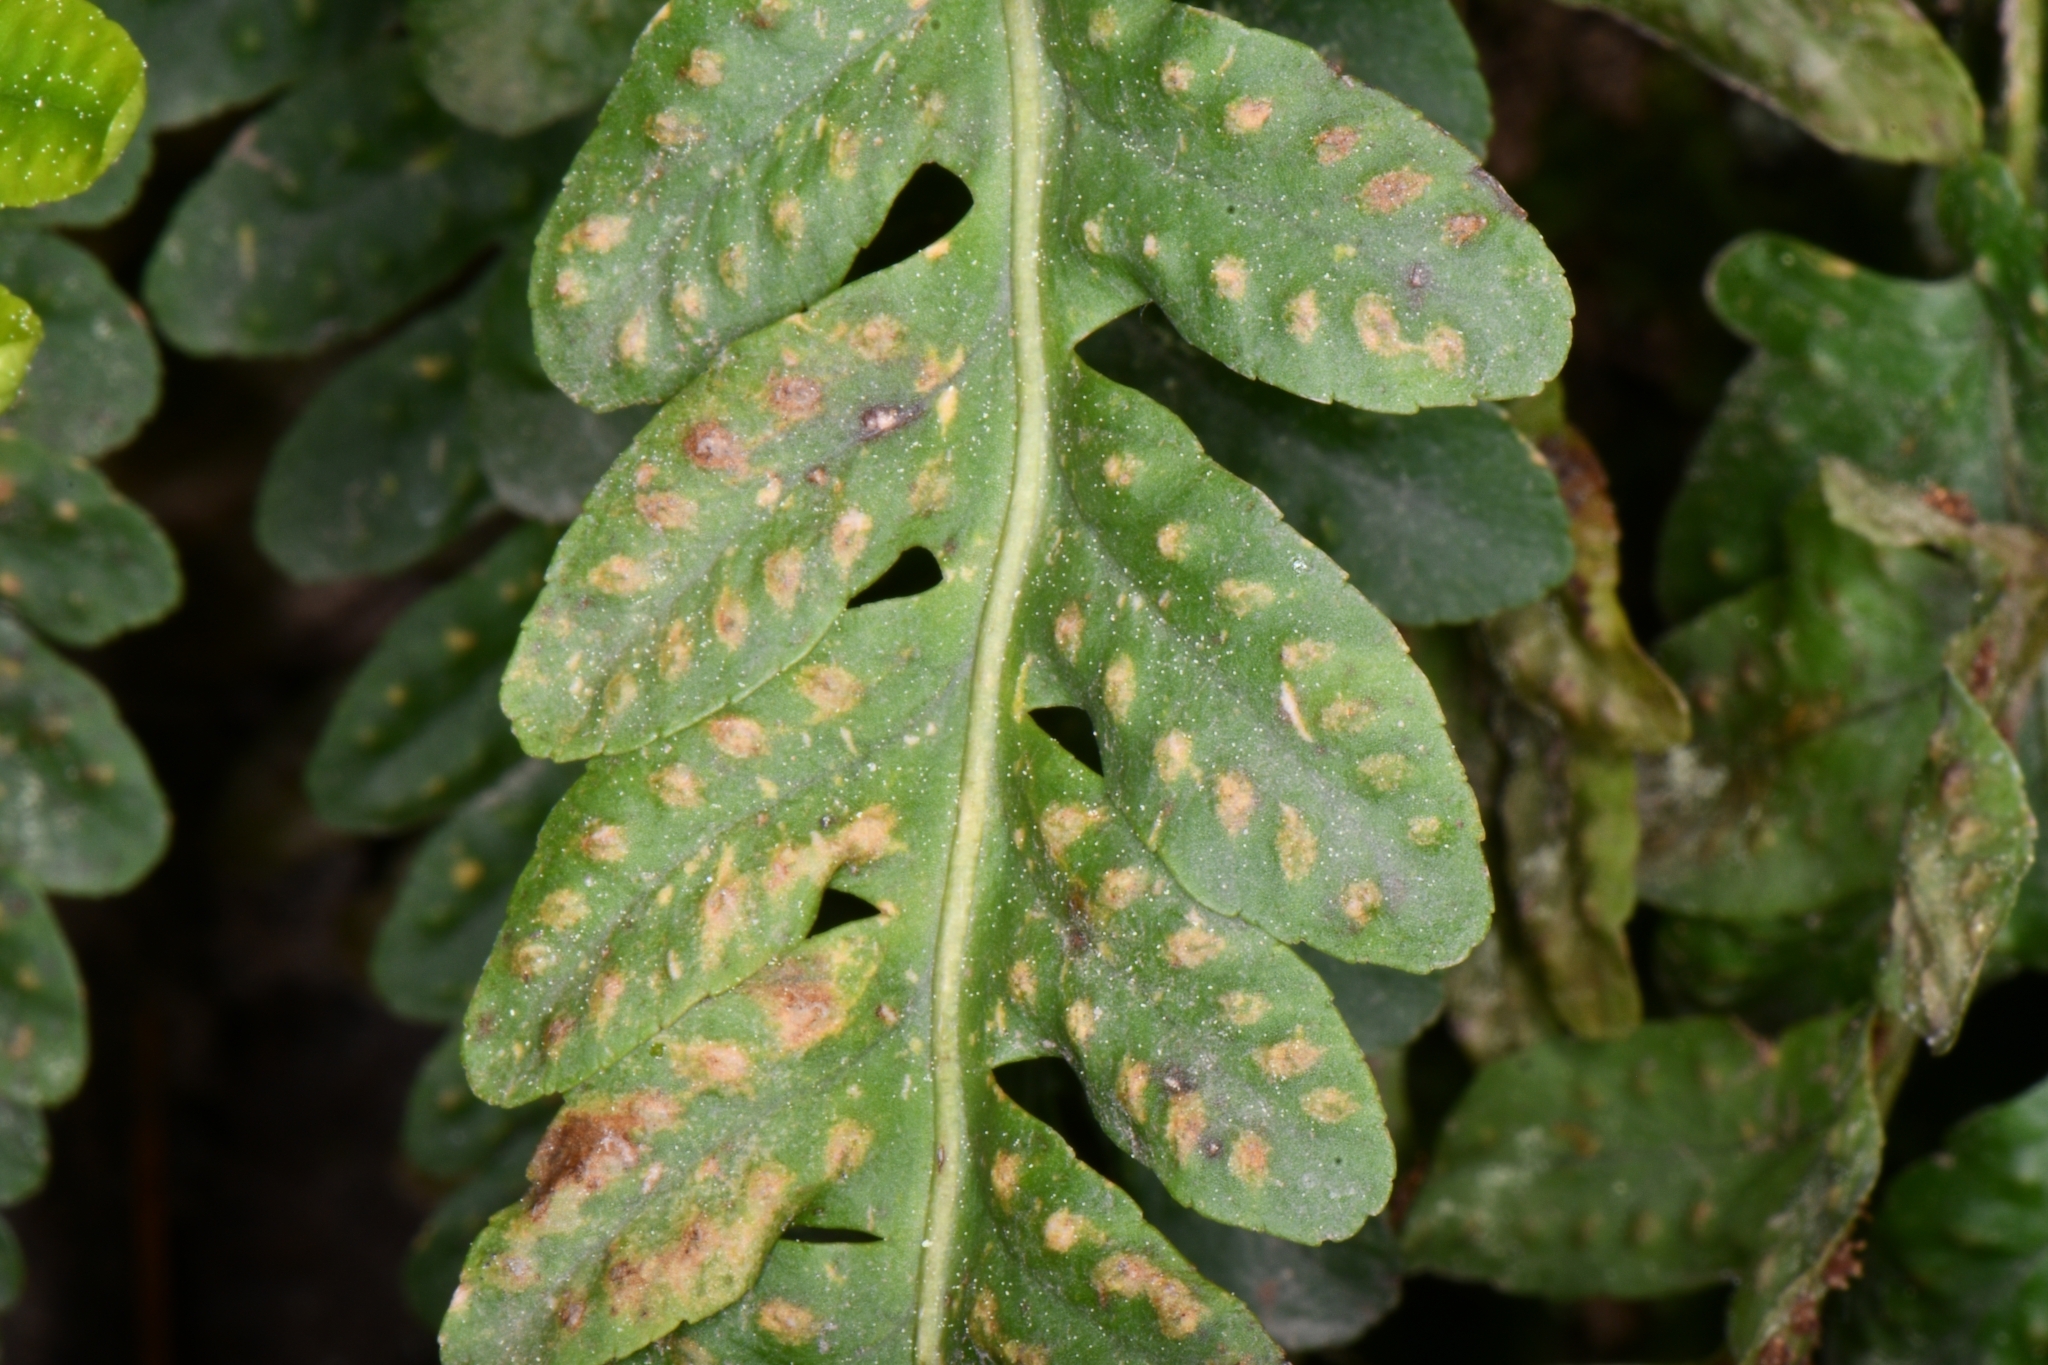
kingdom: Plantae
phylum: Tracheophyta
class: Polypodiopsida
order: Polypodiales
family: Polypodiaceae
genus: Polypodium
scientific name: Polypodium hesperium
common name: Western polypody
